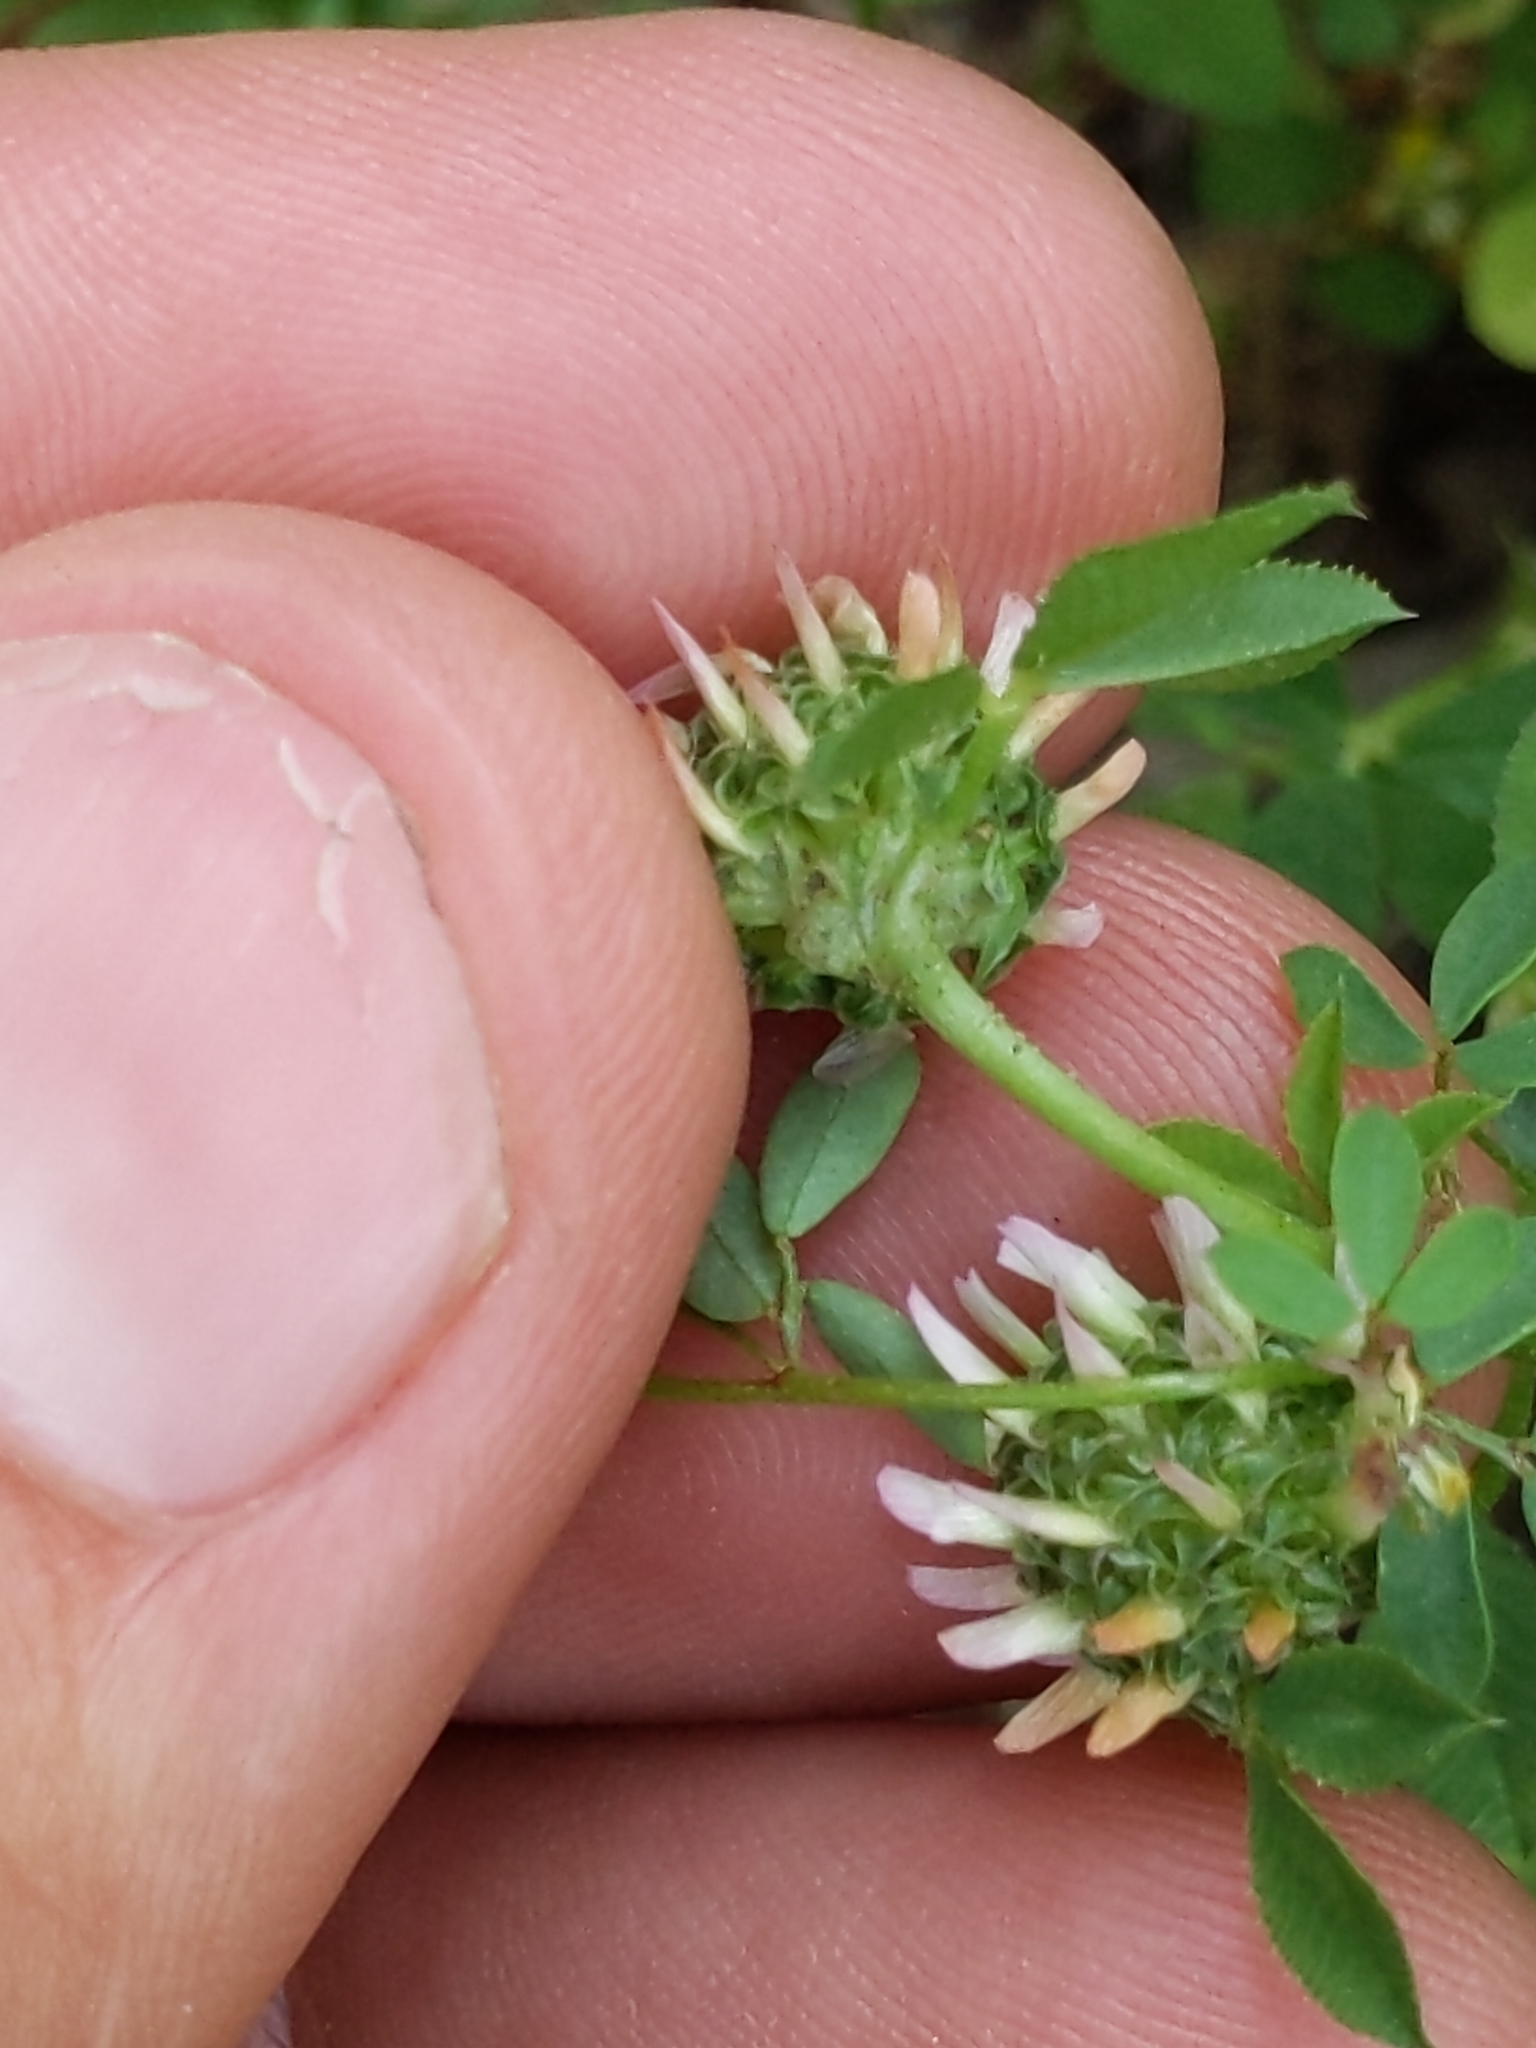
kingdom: Plantae
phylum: Tracheophyta
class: Magnoliopsida
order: Fabales
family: Fabaceae
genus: Trifolium
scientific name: Trifolium glomeratum
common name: Clustered clover
